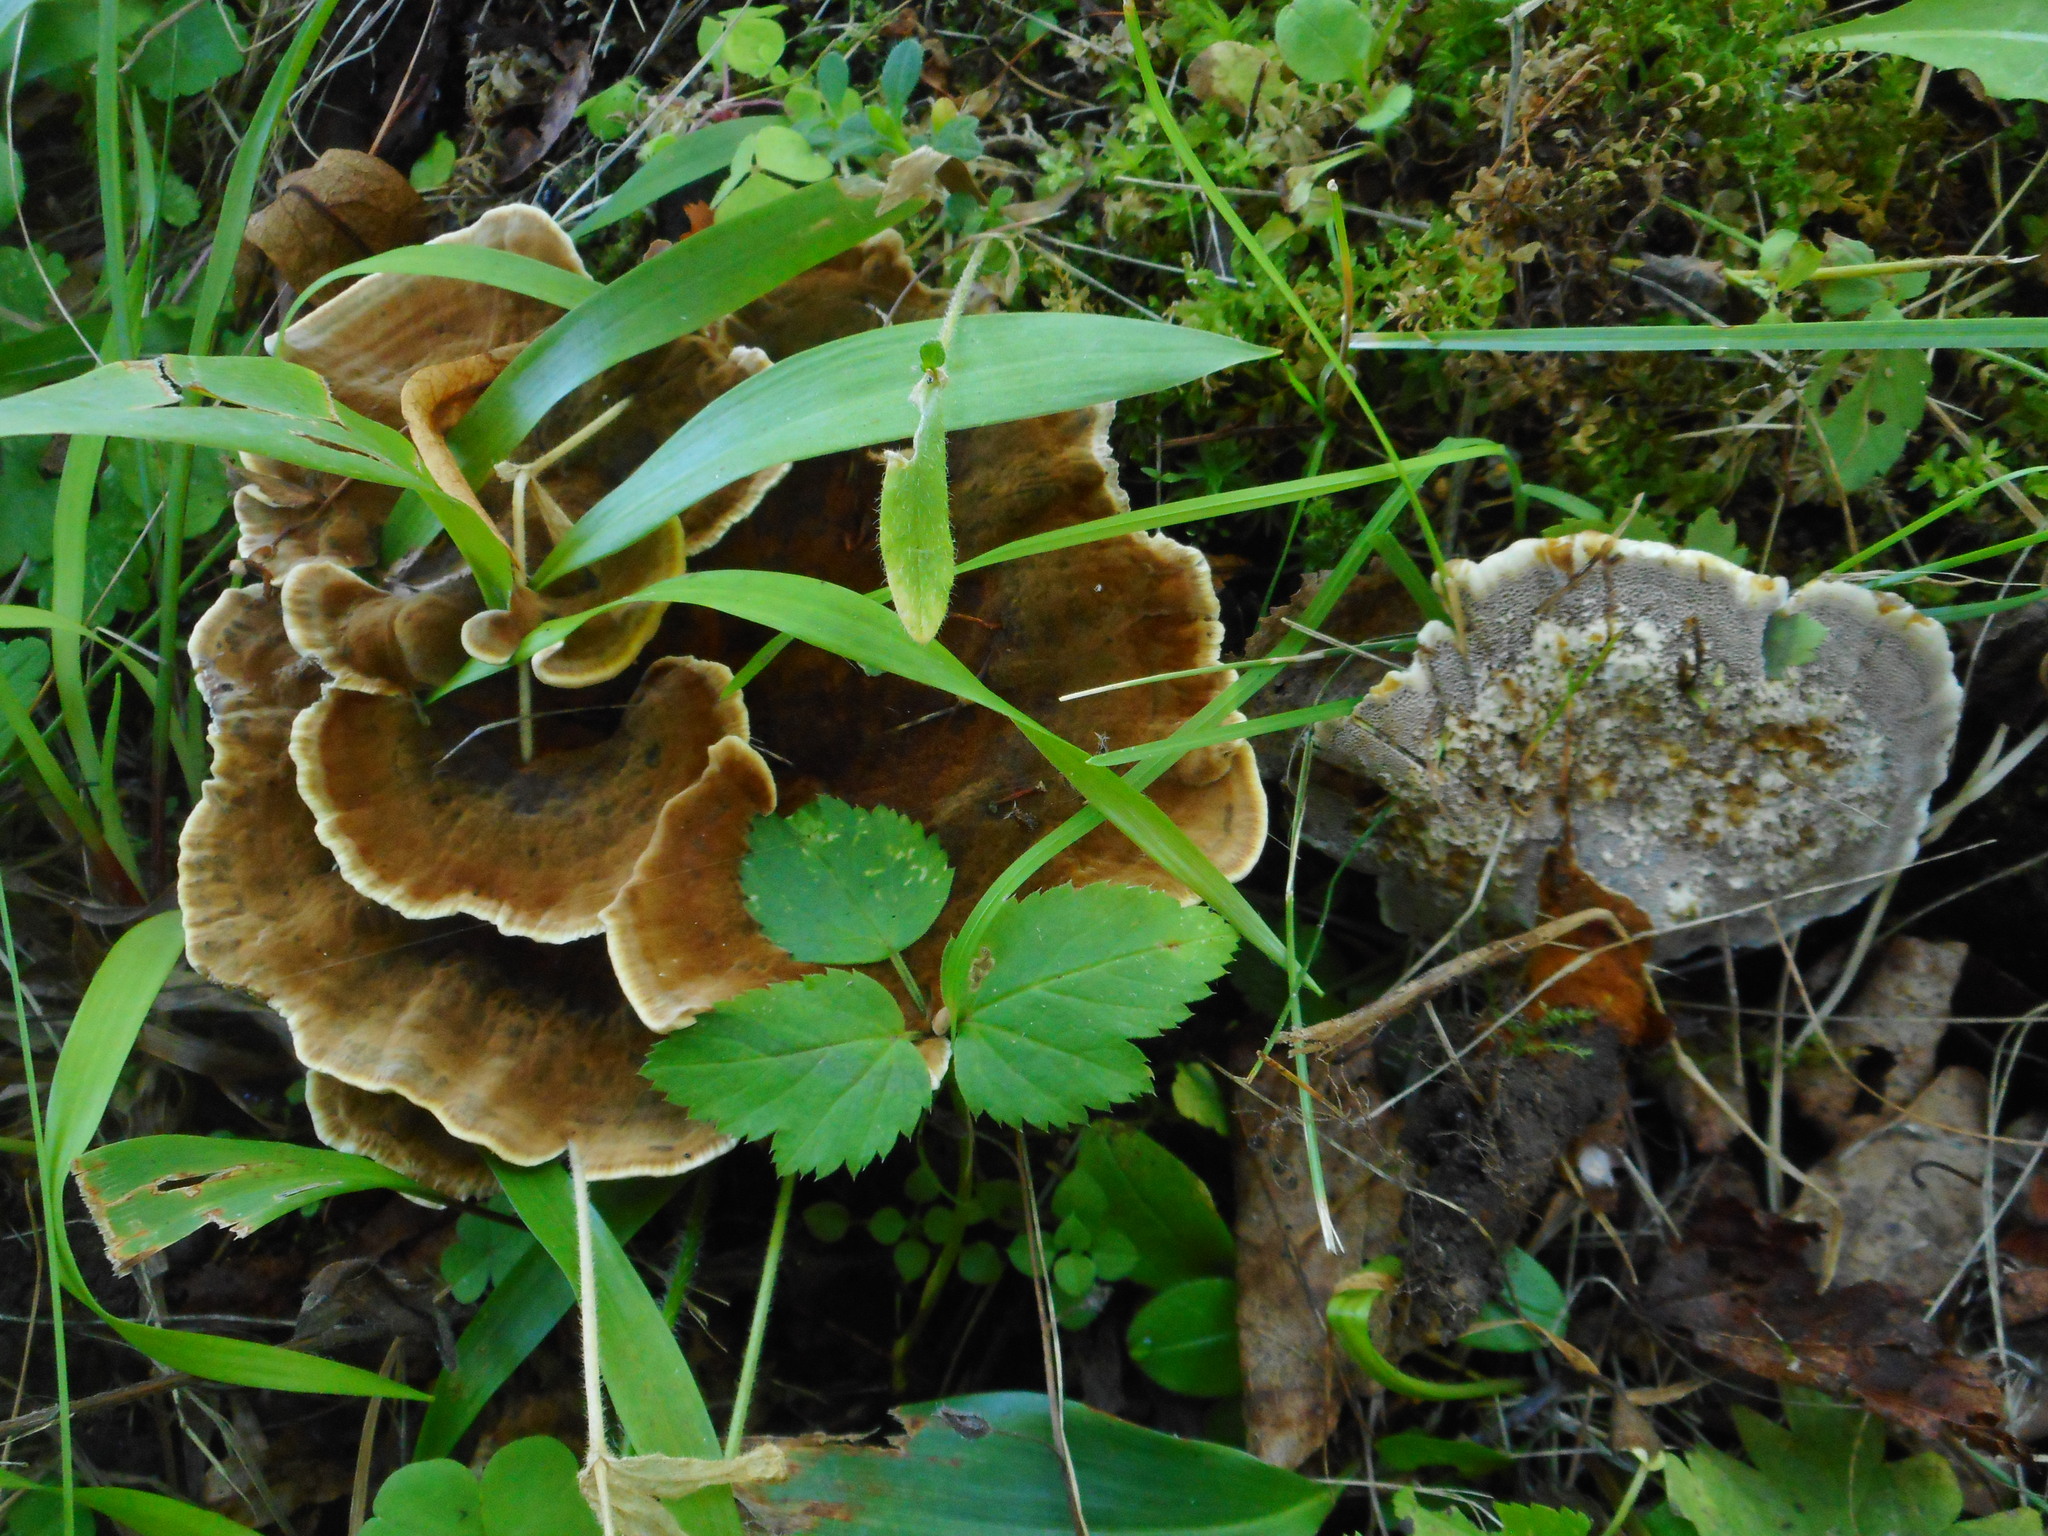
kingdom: Fungi
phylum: Basidiomycota
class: Agaricomycetes
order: Hymenochaetales
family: Hymenochaetaceae
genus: Onnia
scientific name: Onnia tomentosa
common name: Velvet rosette
